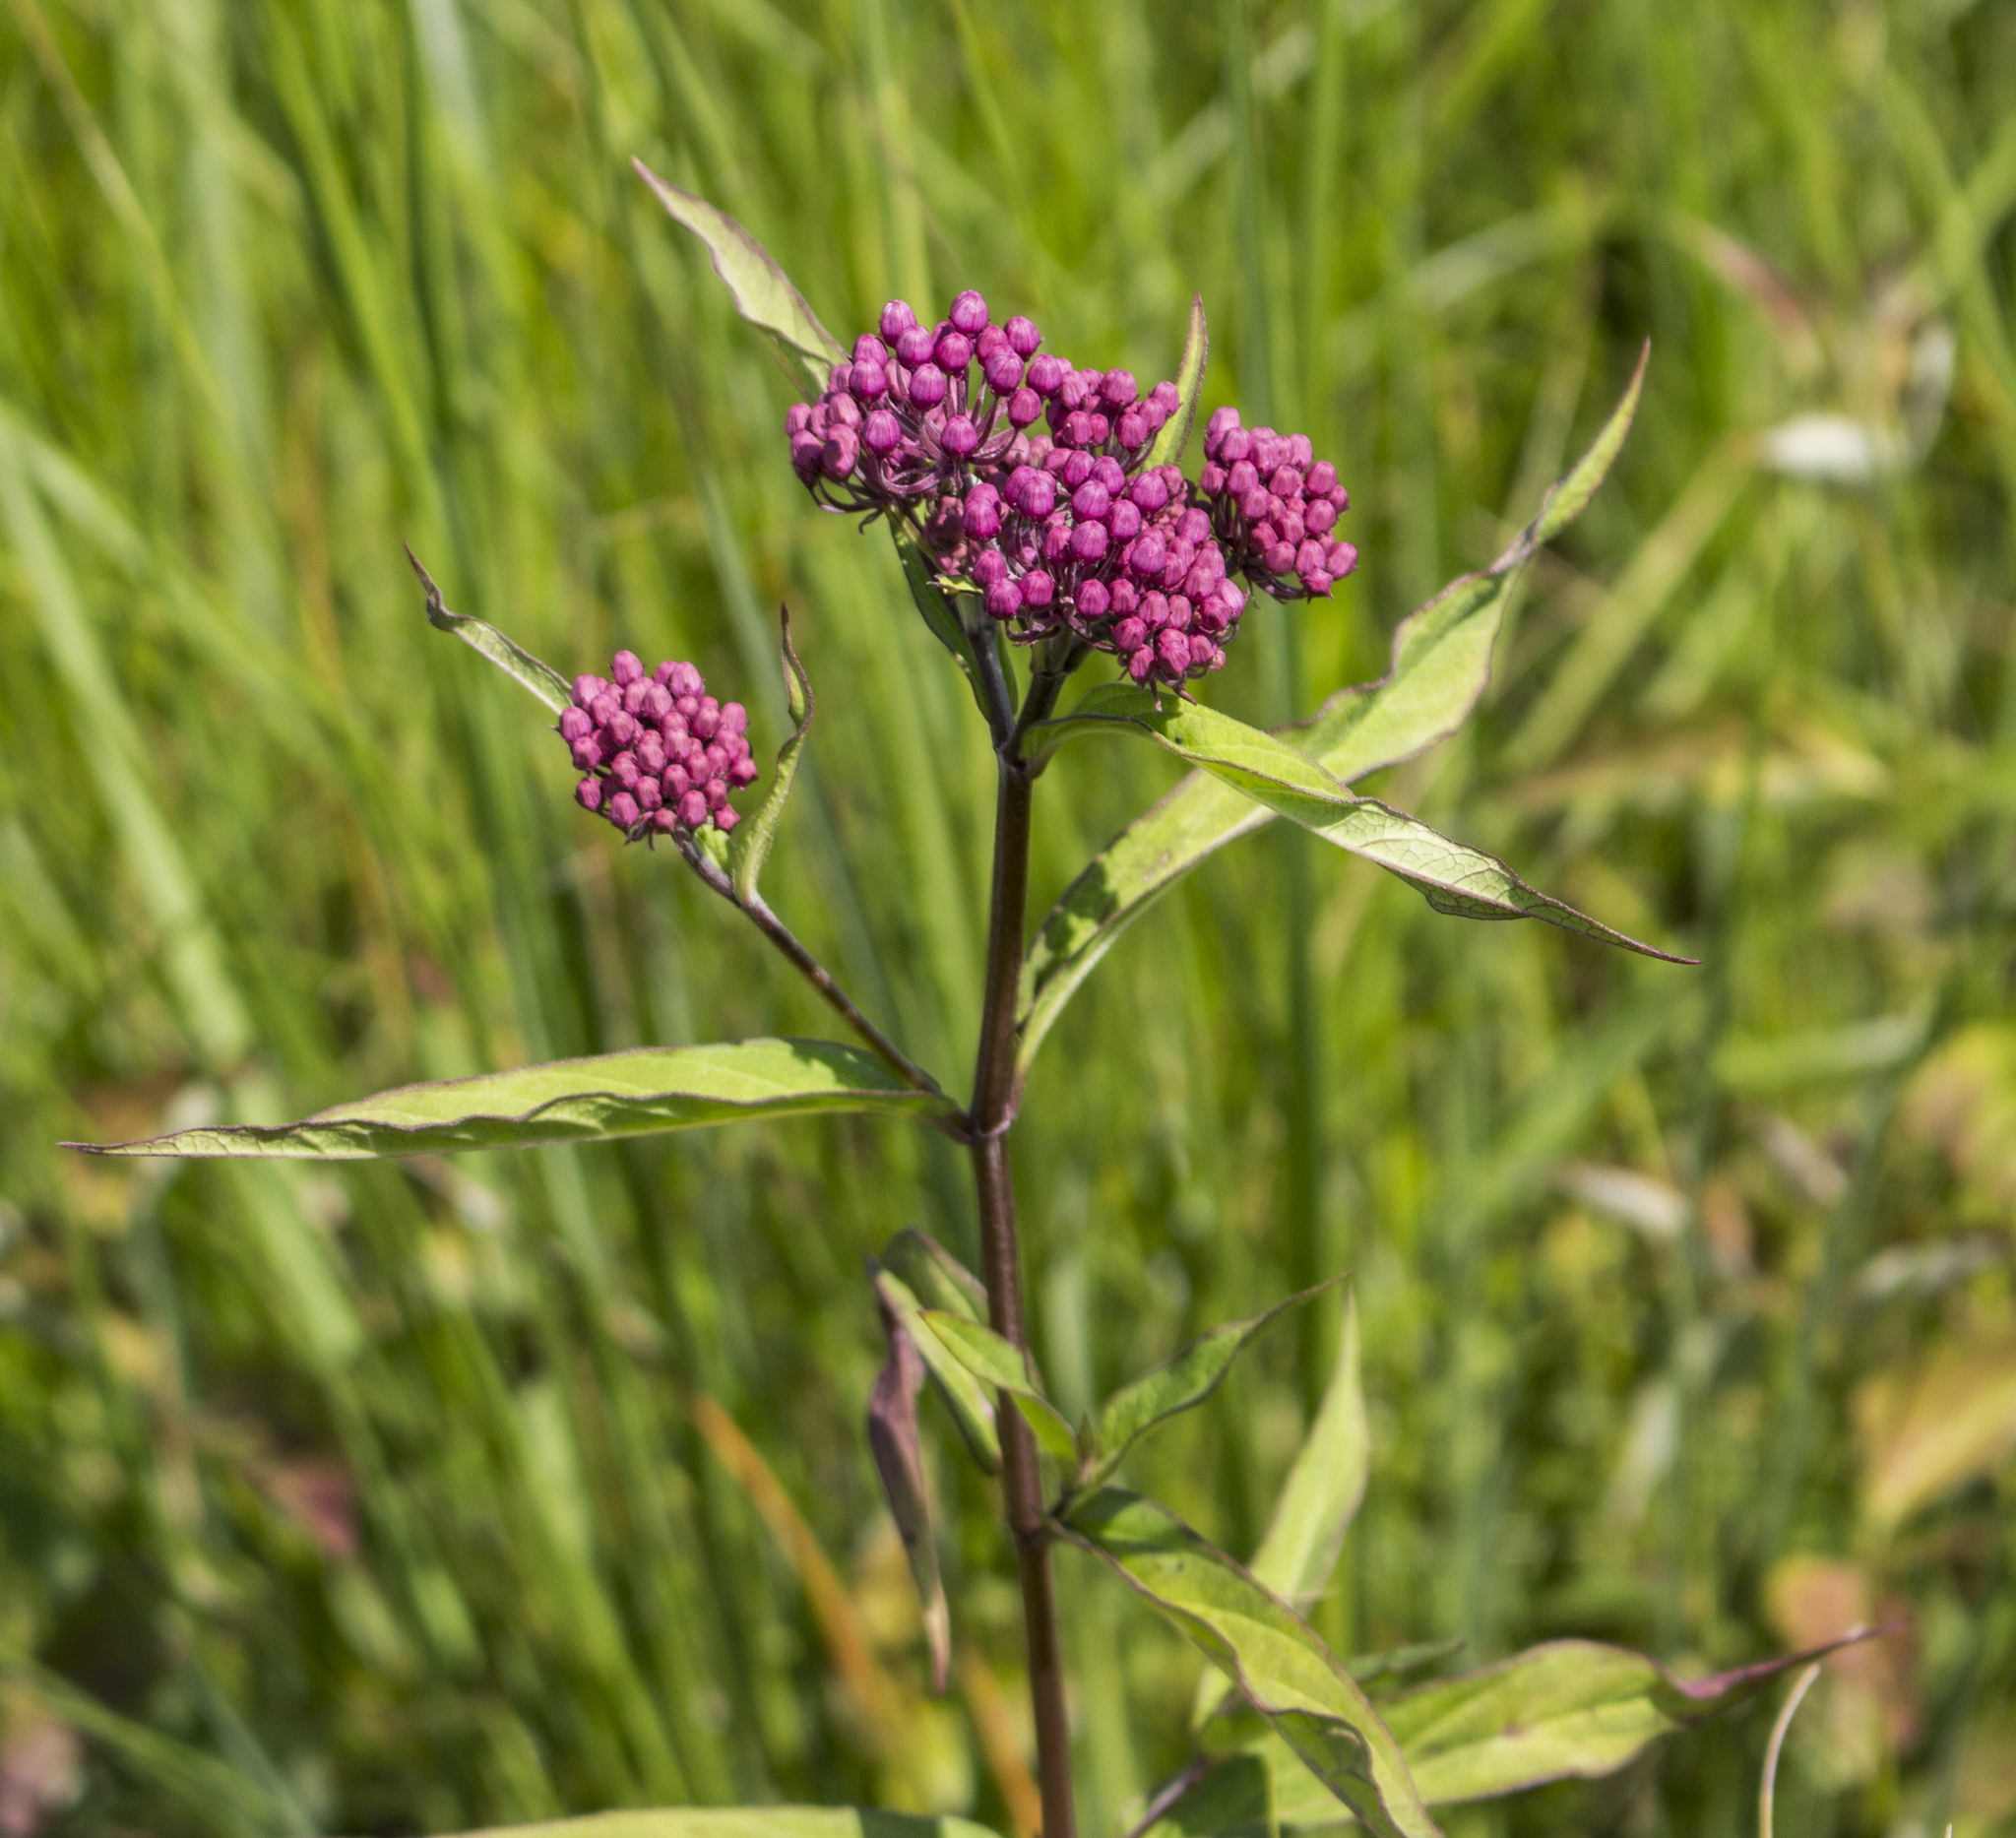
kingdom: Plantae
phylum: Tracheophyta
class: Magnoliopsida
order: Gentianales
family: Apocynaceae
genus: Asclepias
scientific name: Asclepias incarnata
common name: Swamp milkweed
